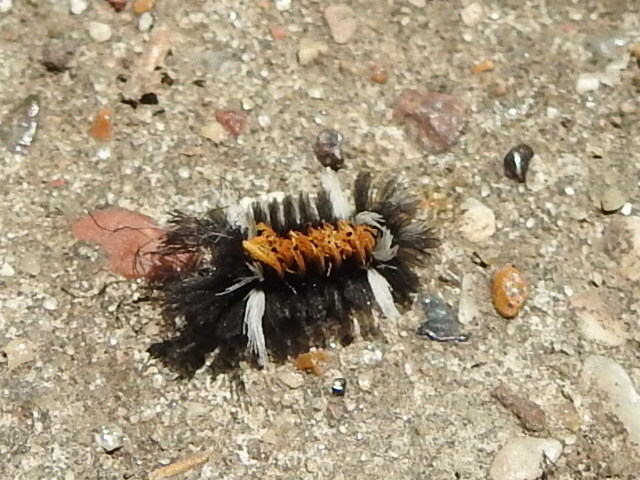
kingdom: Animalia
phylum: Arthropoda
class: Insecta
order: Lepidoptera
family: Erebidae
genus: Euchaetes
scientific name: Euchaetes egle
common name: Milkweed tussock moth
